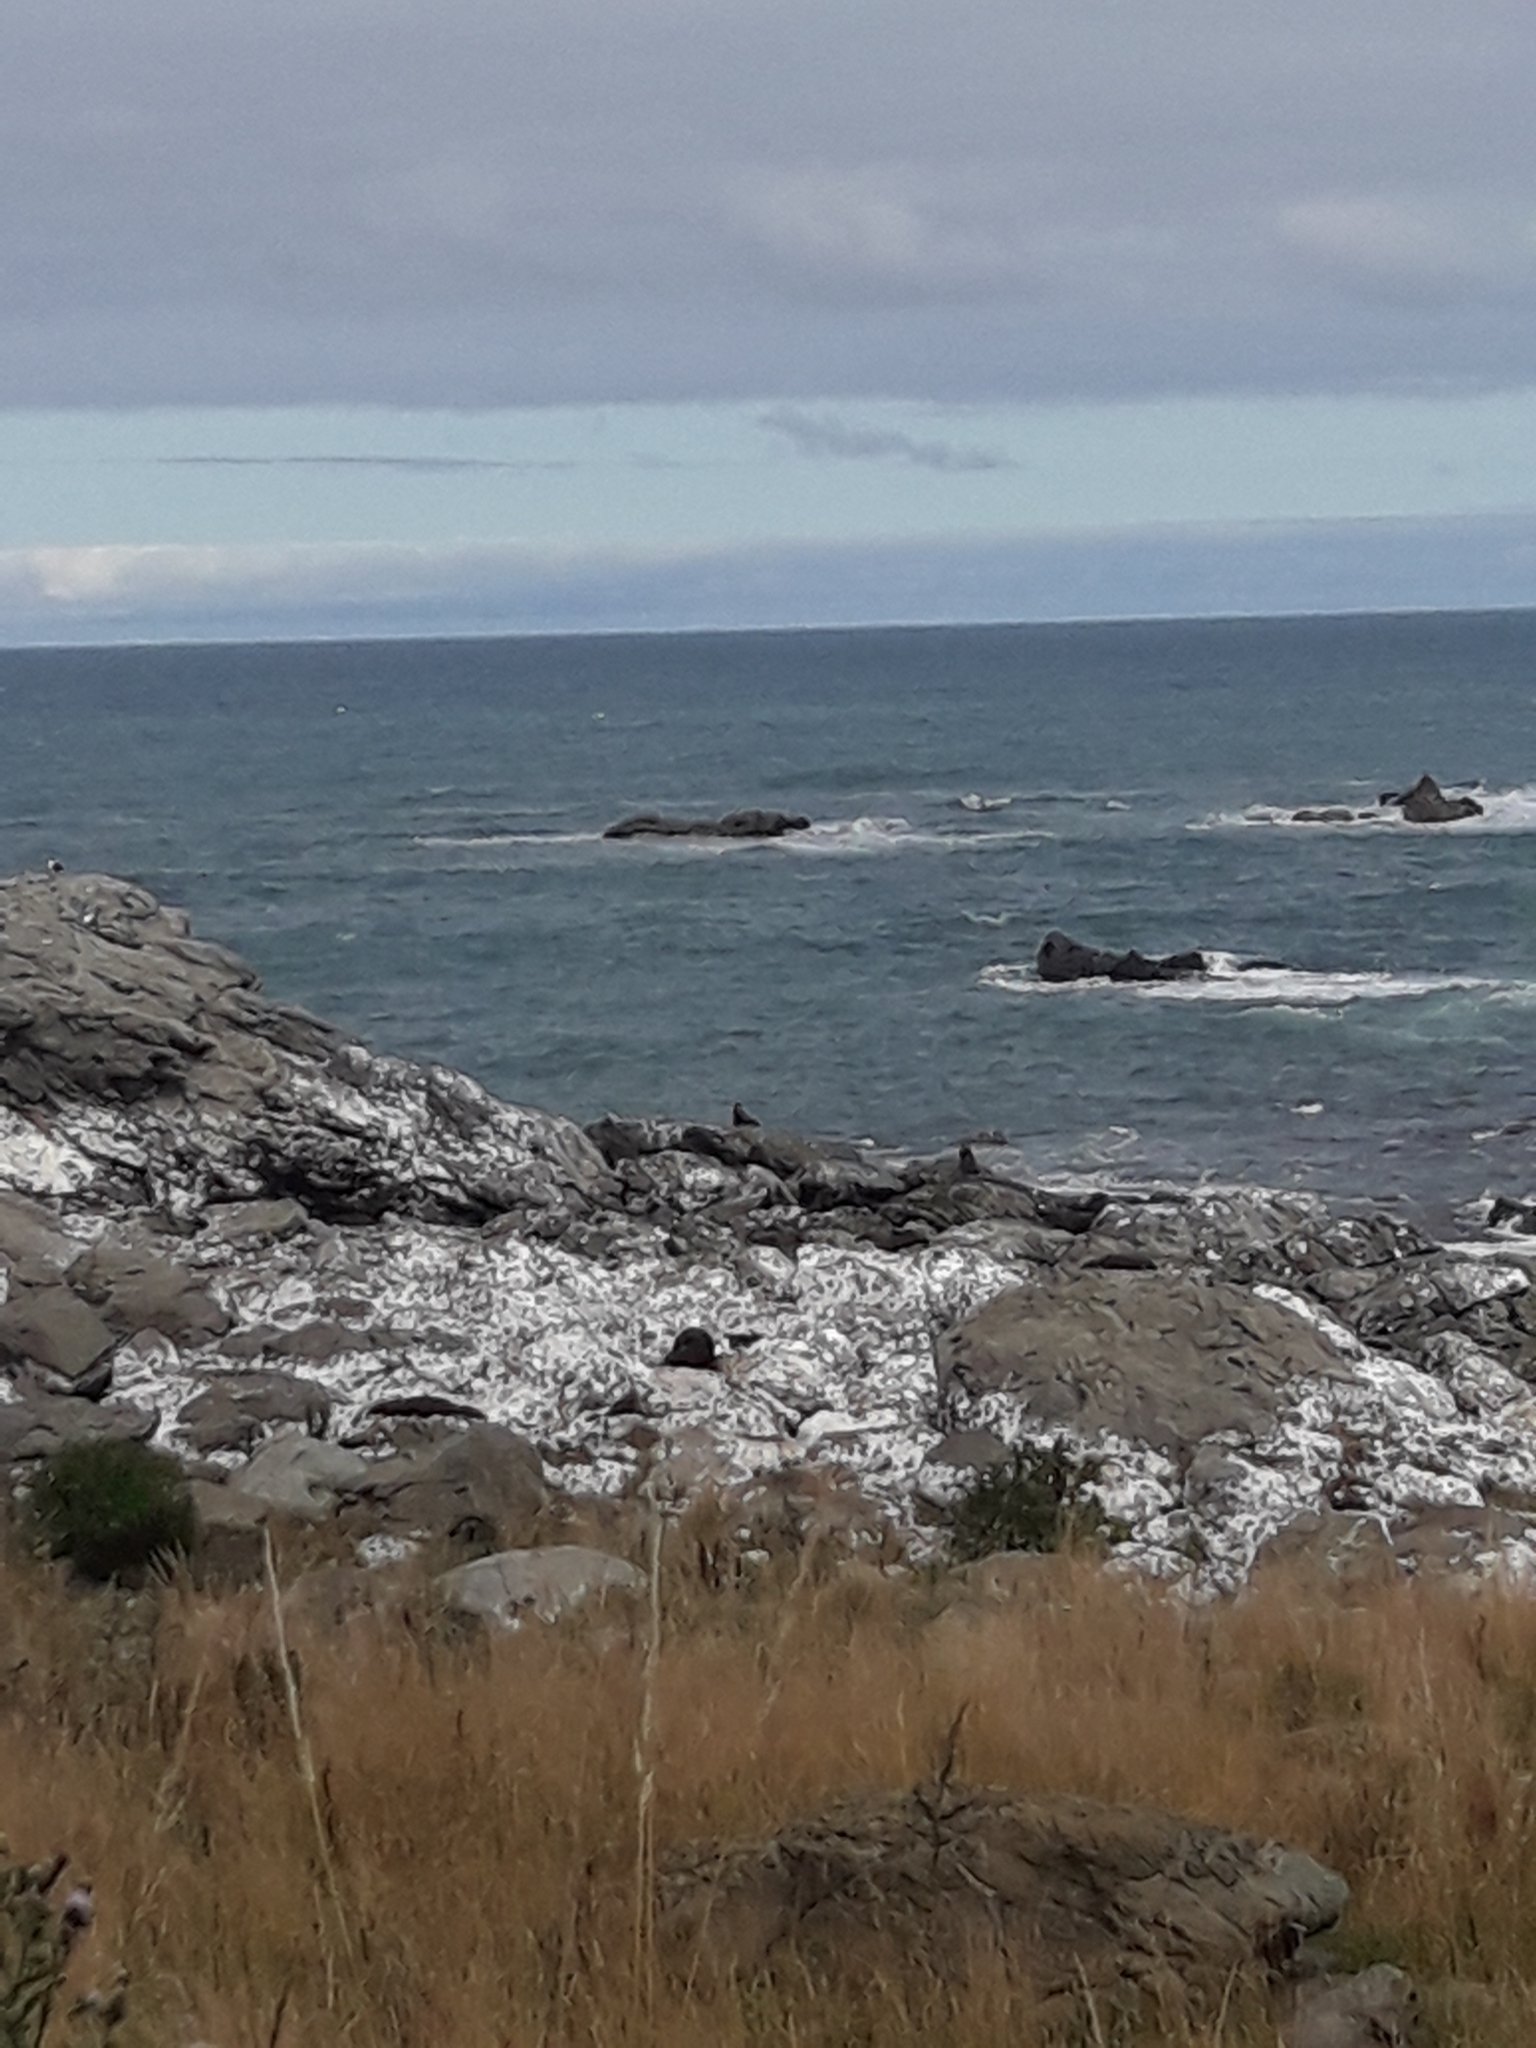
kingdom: Animalia
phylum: Chordata
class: Mammalia
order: Carnivora
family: Otariidae
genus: Arctocephalus
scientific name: Arctocephalus forsteri
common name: New zealand fur seal
